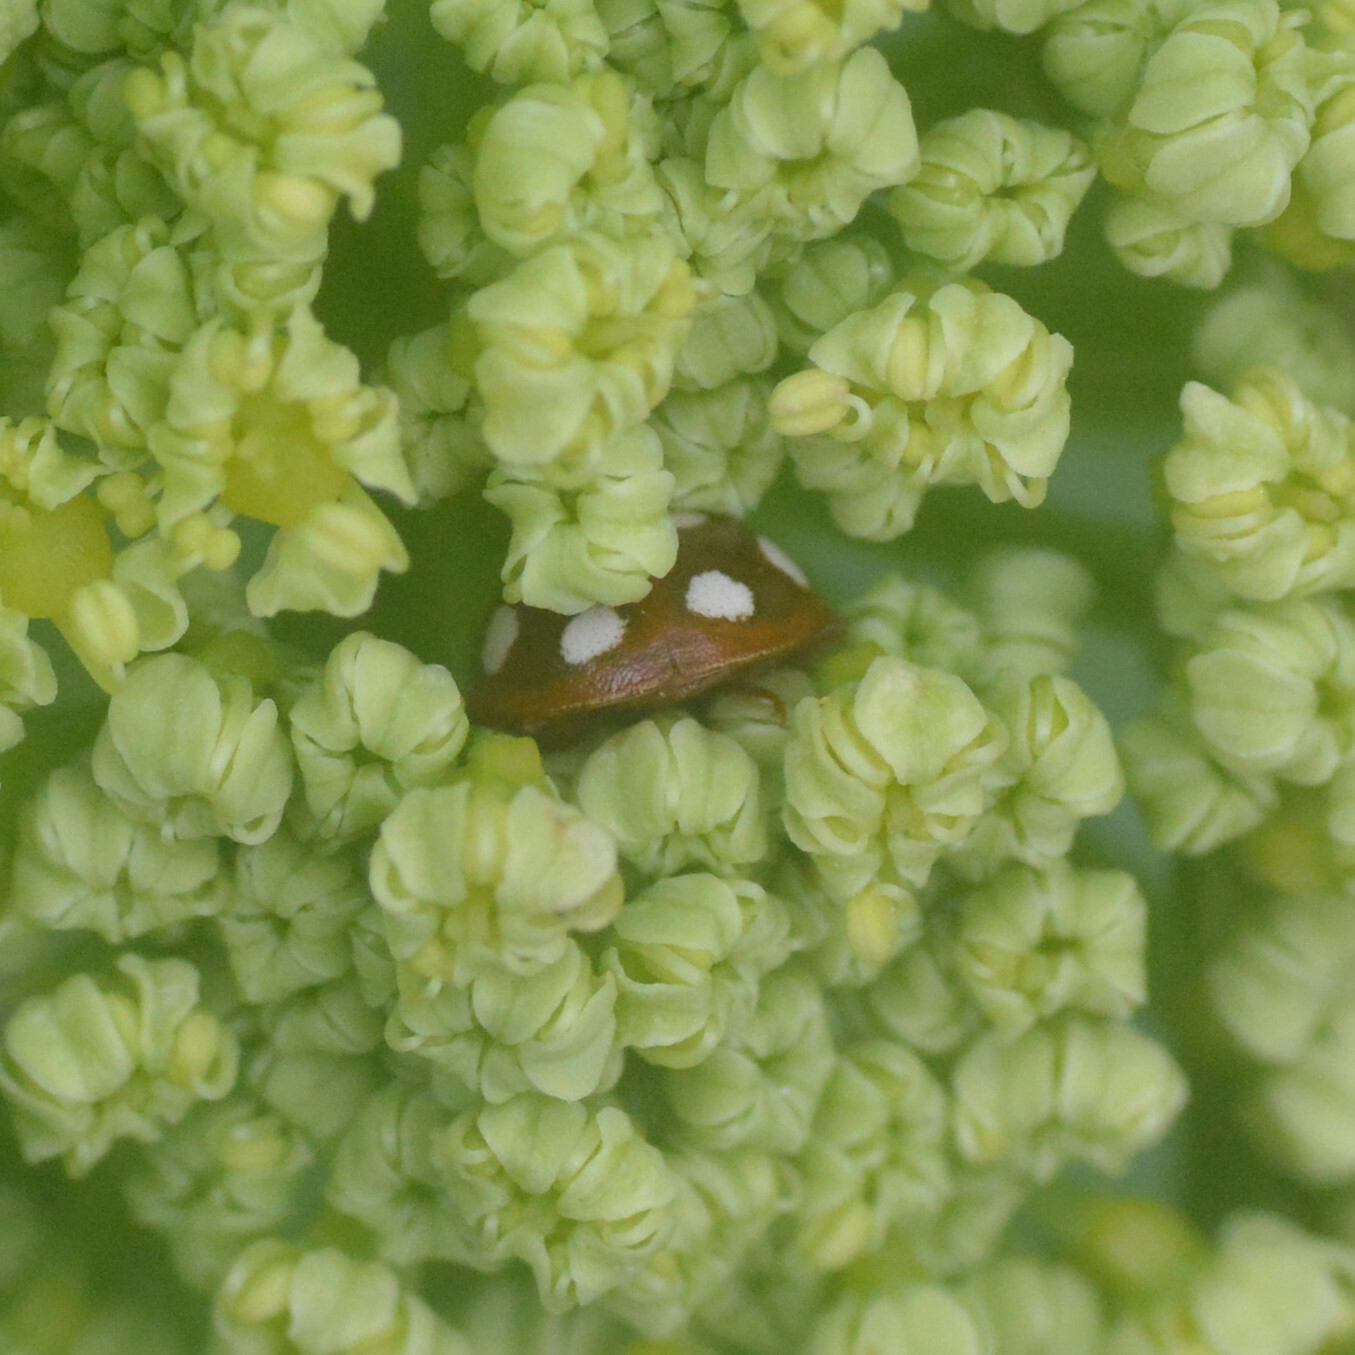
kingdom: Animalia
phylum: Arthropoda
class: Insecta
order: Coleoptera
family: Coccinellidae
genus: Calvia
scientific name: Calvia quatuordecimguttata
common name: Cream-spot ladybird
